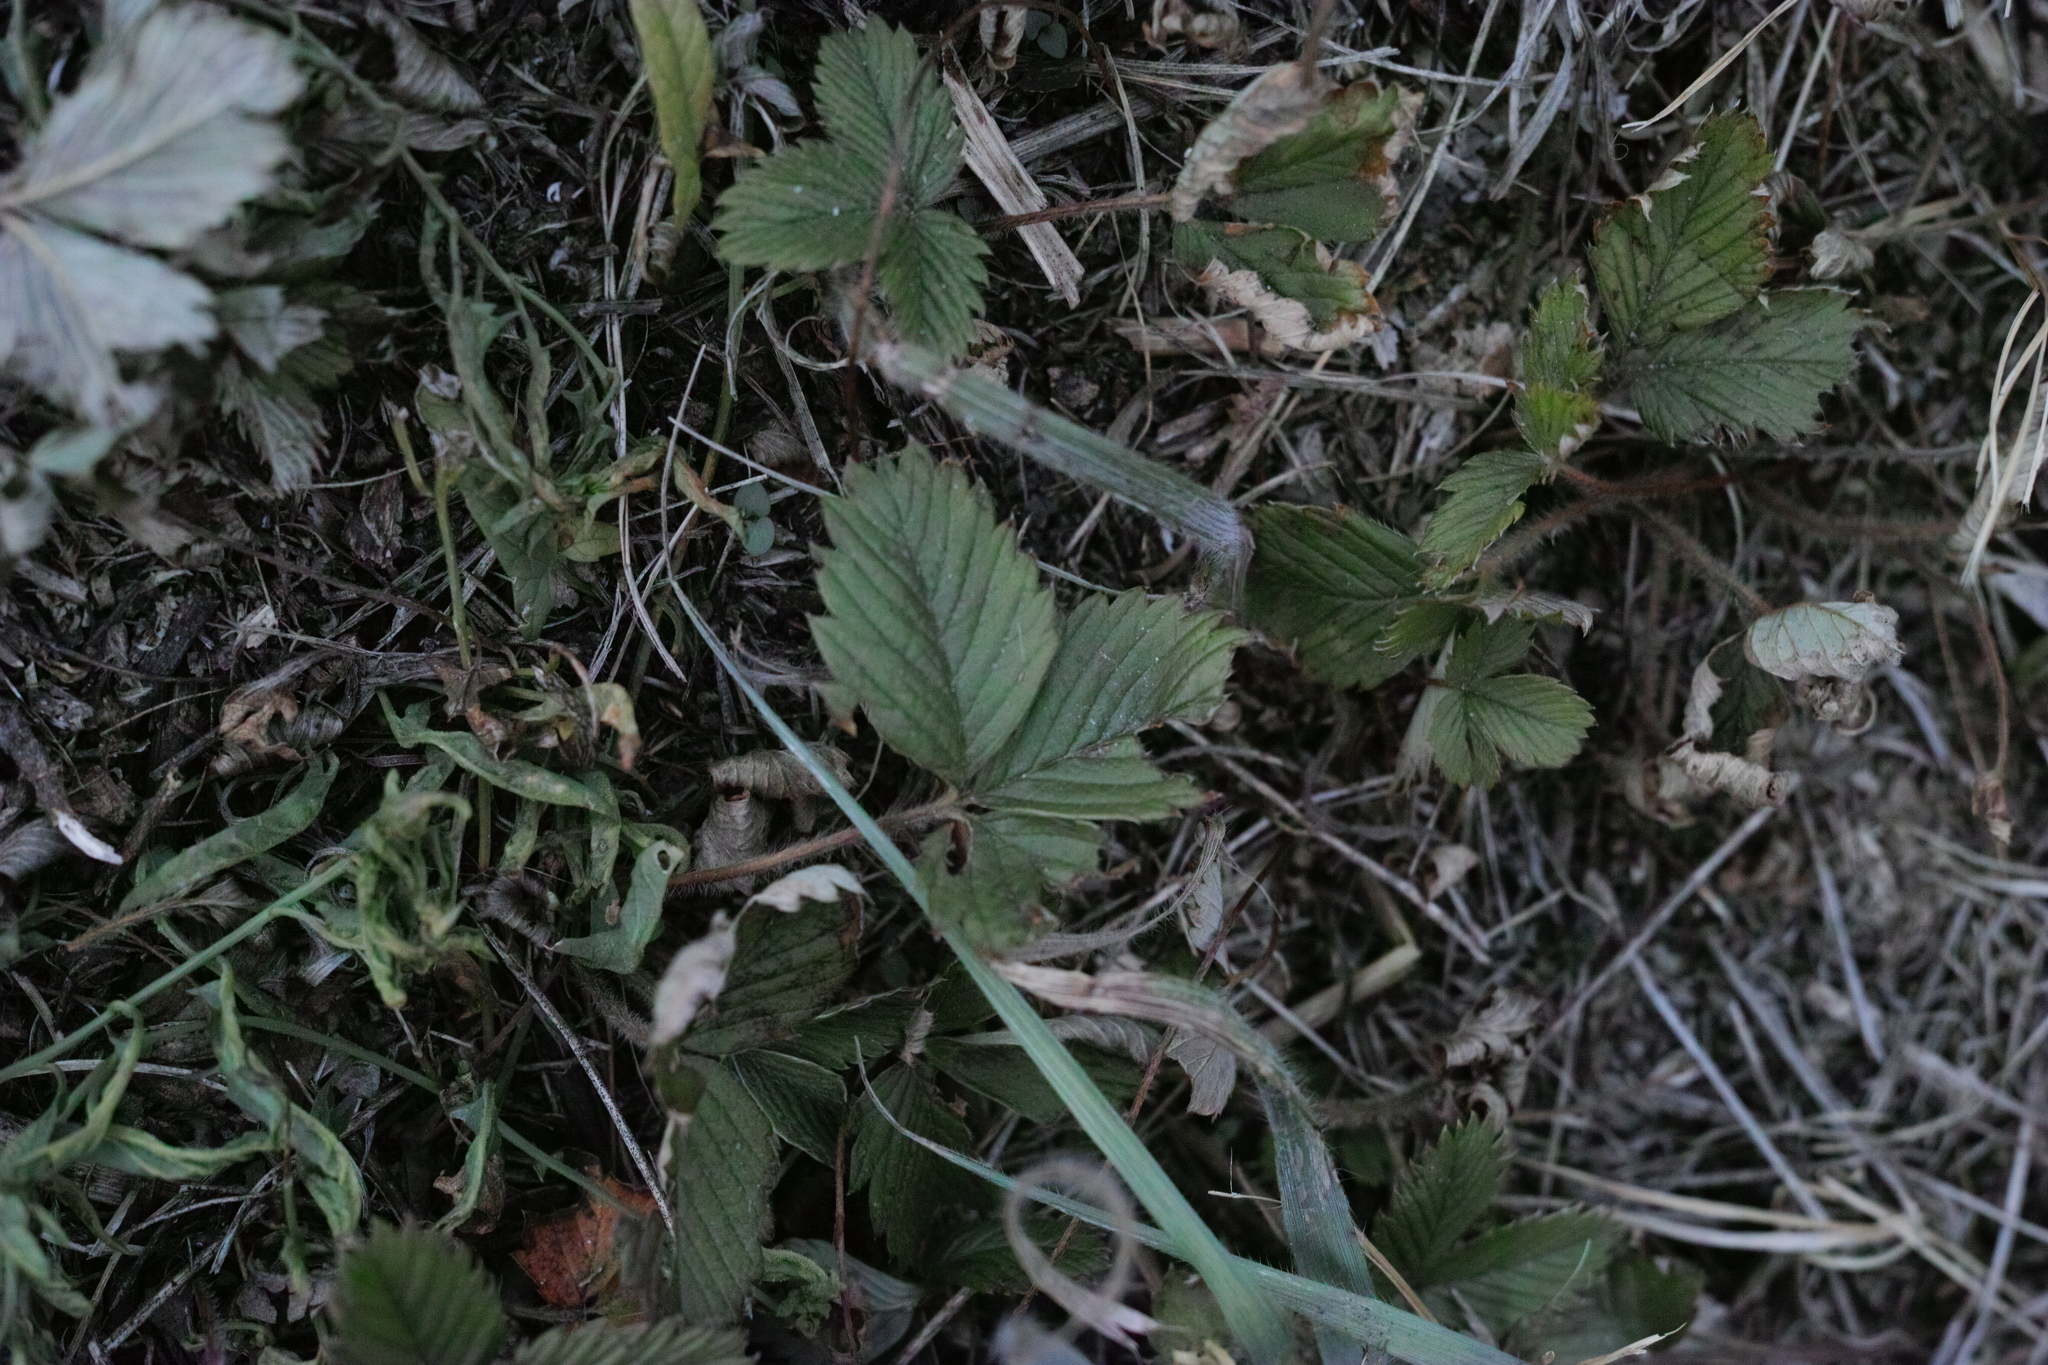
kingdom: Plantae
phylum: Tracheophyta
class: Magnoliopsida
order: Rosales
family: Rosaceae
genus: Fragaria
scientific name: Fragaria viridis
